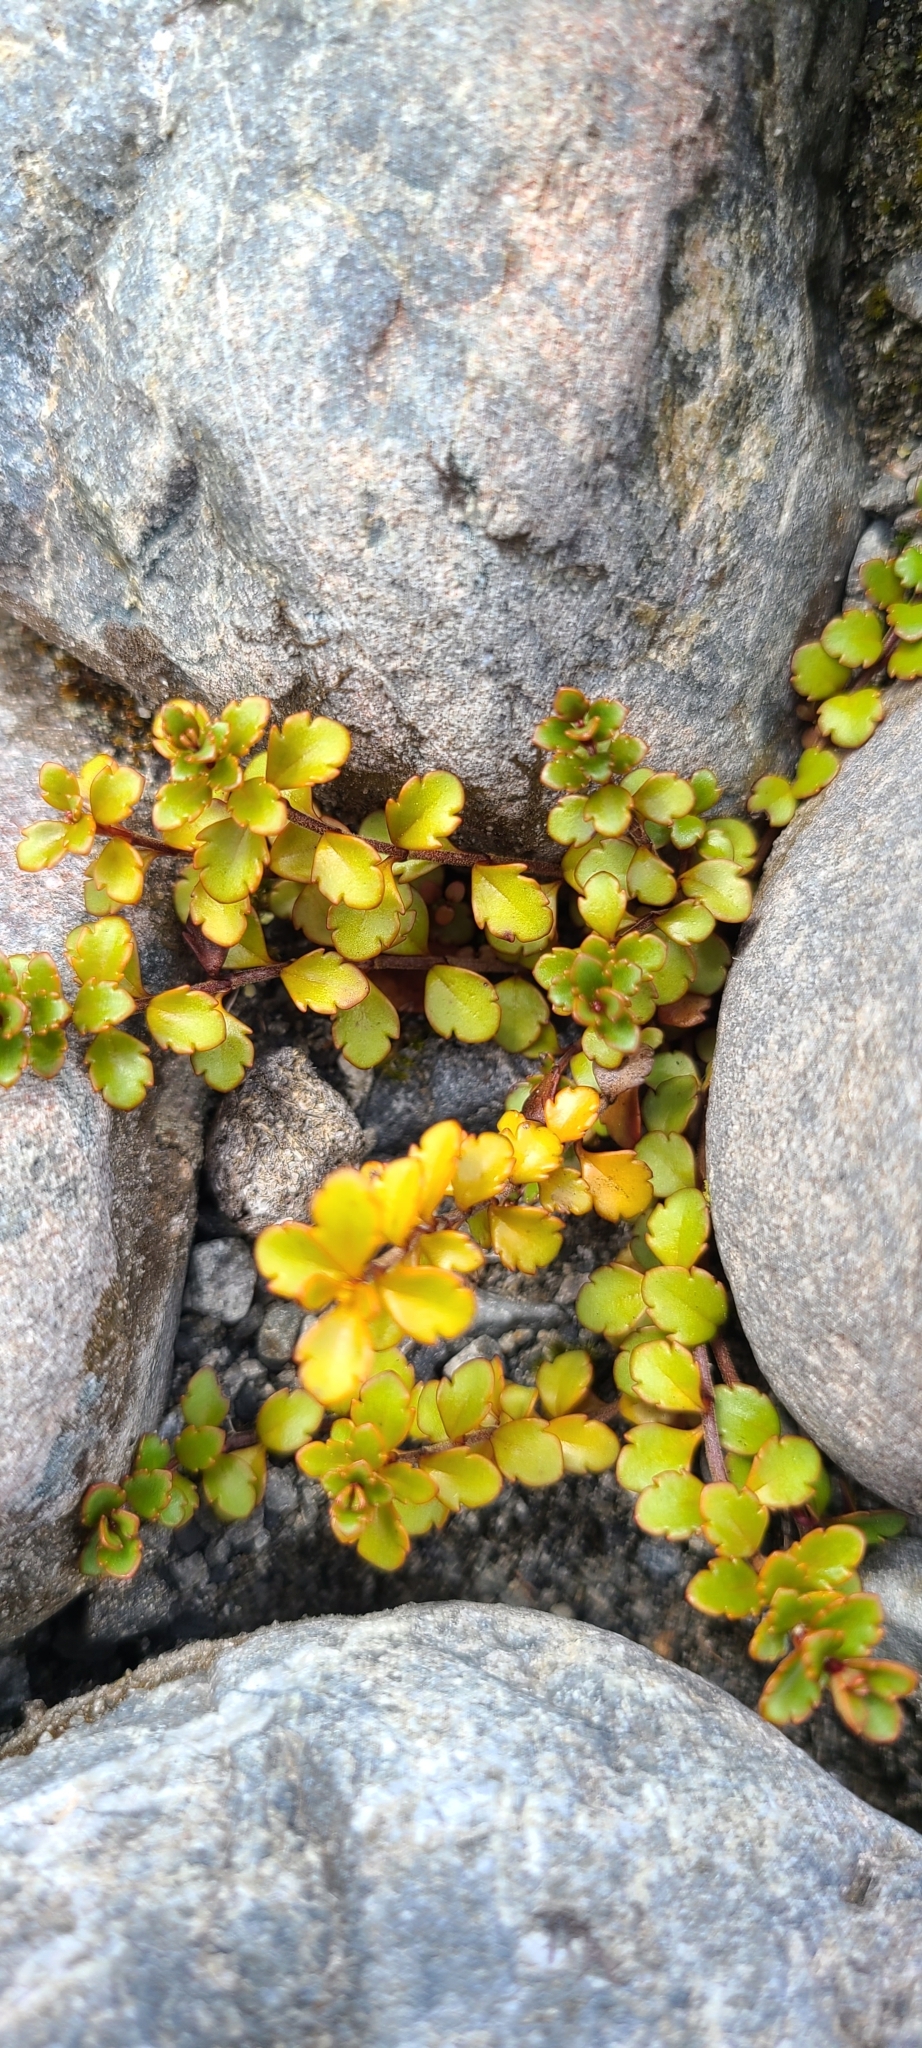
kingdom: Plantae
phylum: Tracheophyta
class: Magnoliopsida
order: Lamiales
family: Plantaginaceae
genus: Veronica
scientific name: Veronica lyallii
